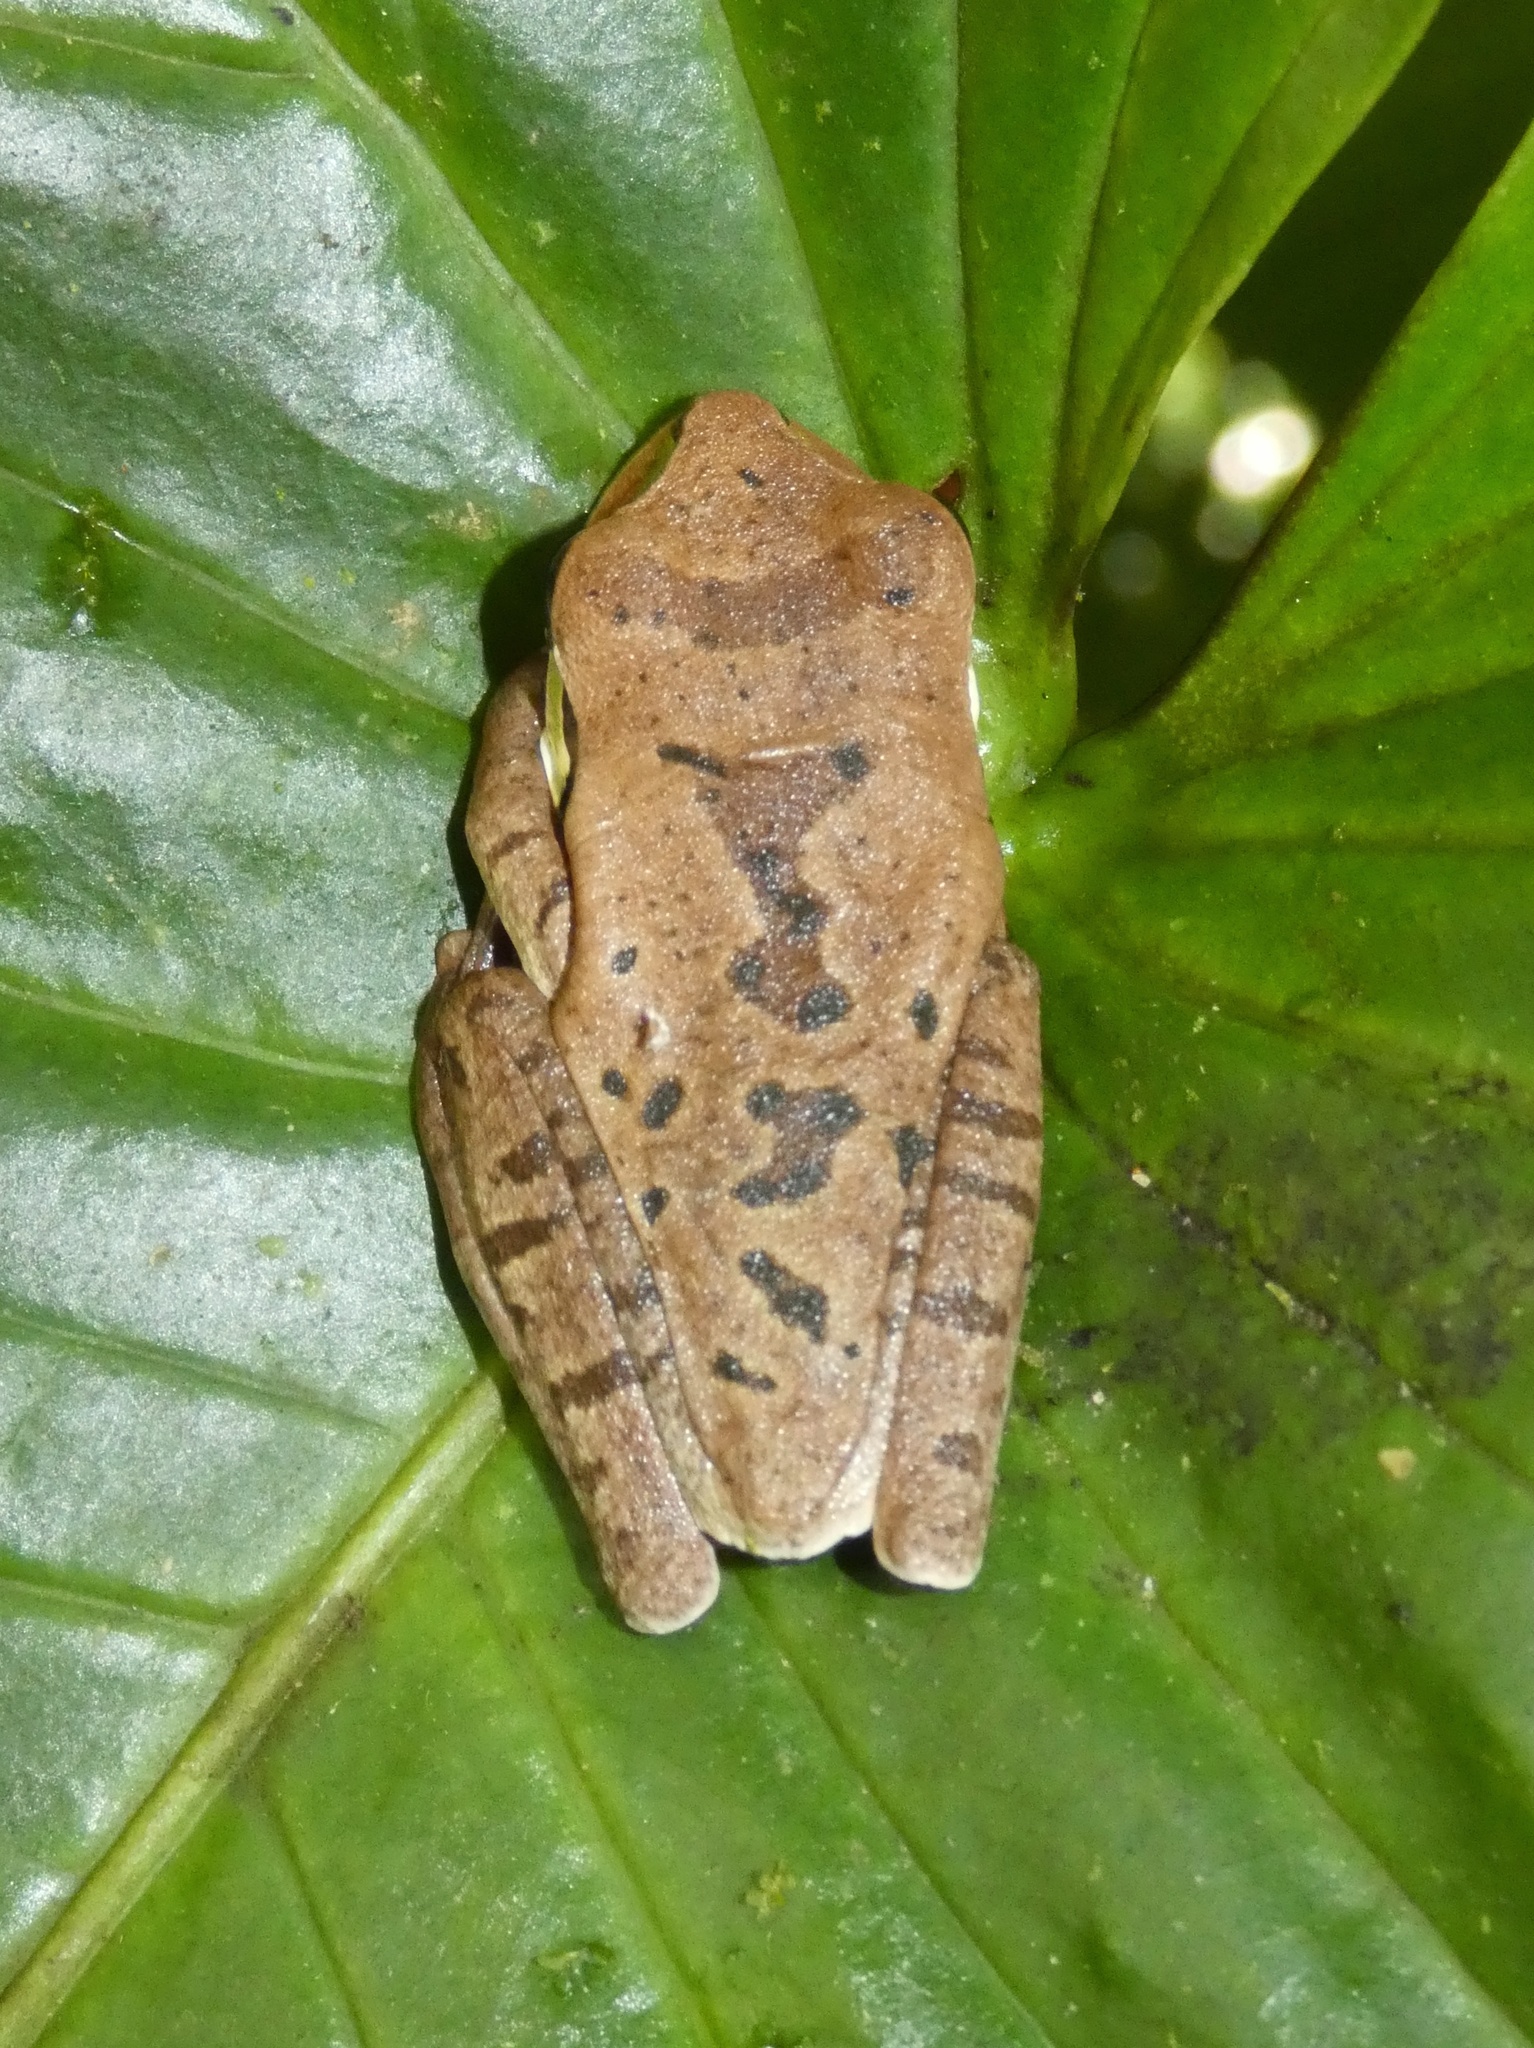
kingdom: Animalia
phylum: Chordata
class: Amphibia
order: Anura
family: Hylidae
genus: Smilisca
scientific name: Smilisca phaeota
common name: Central american smilisca
